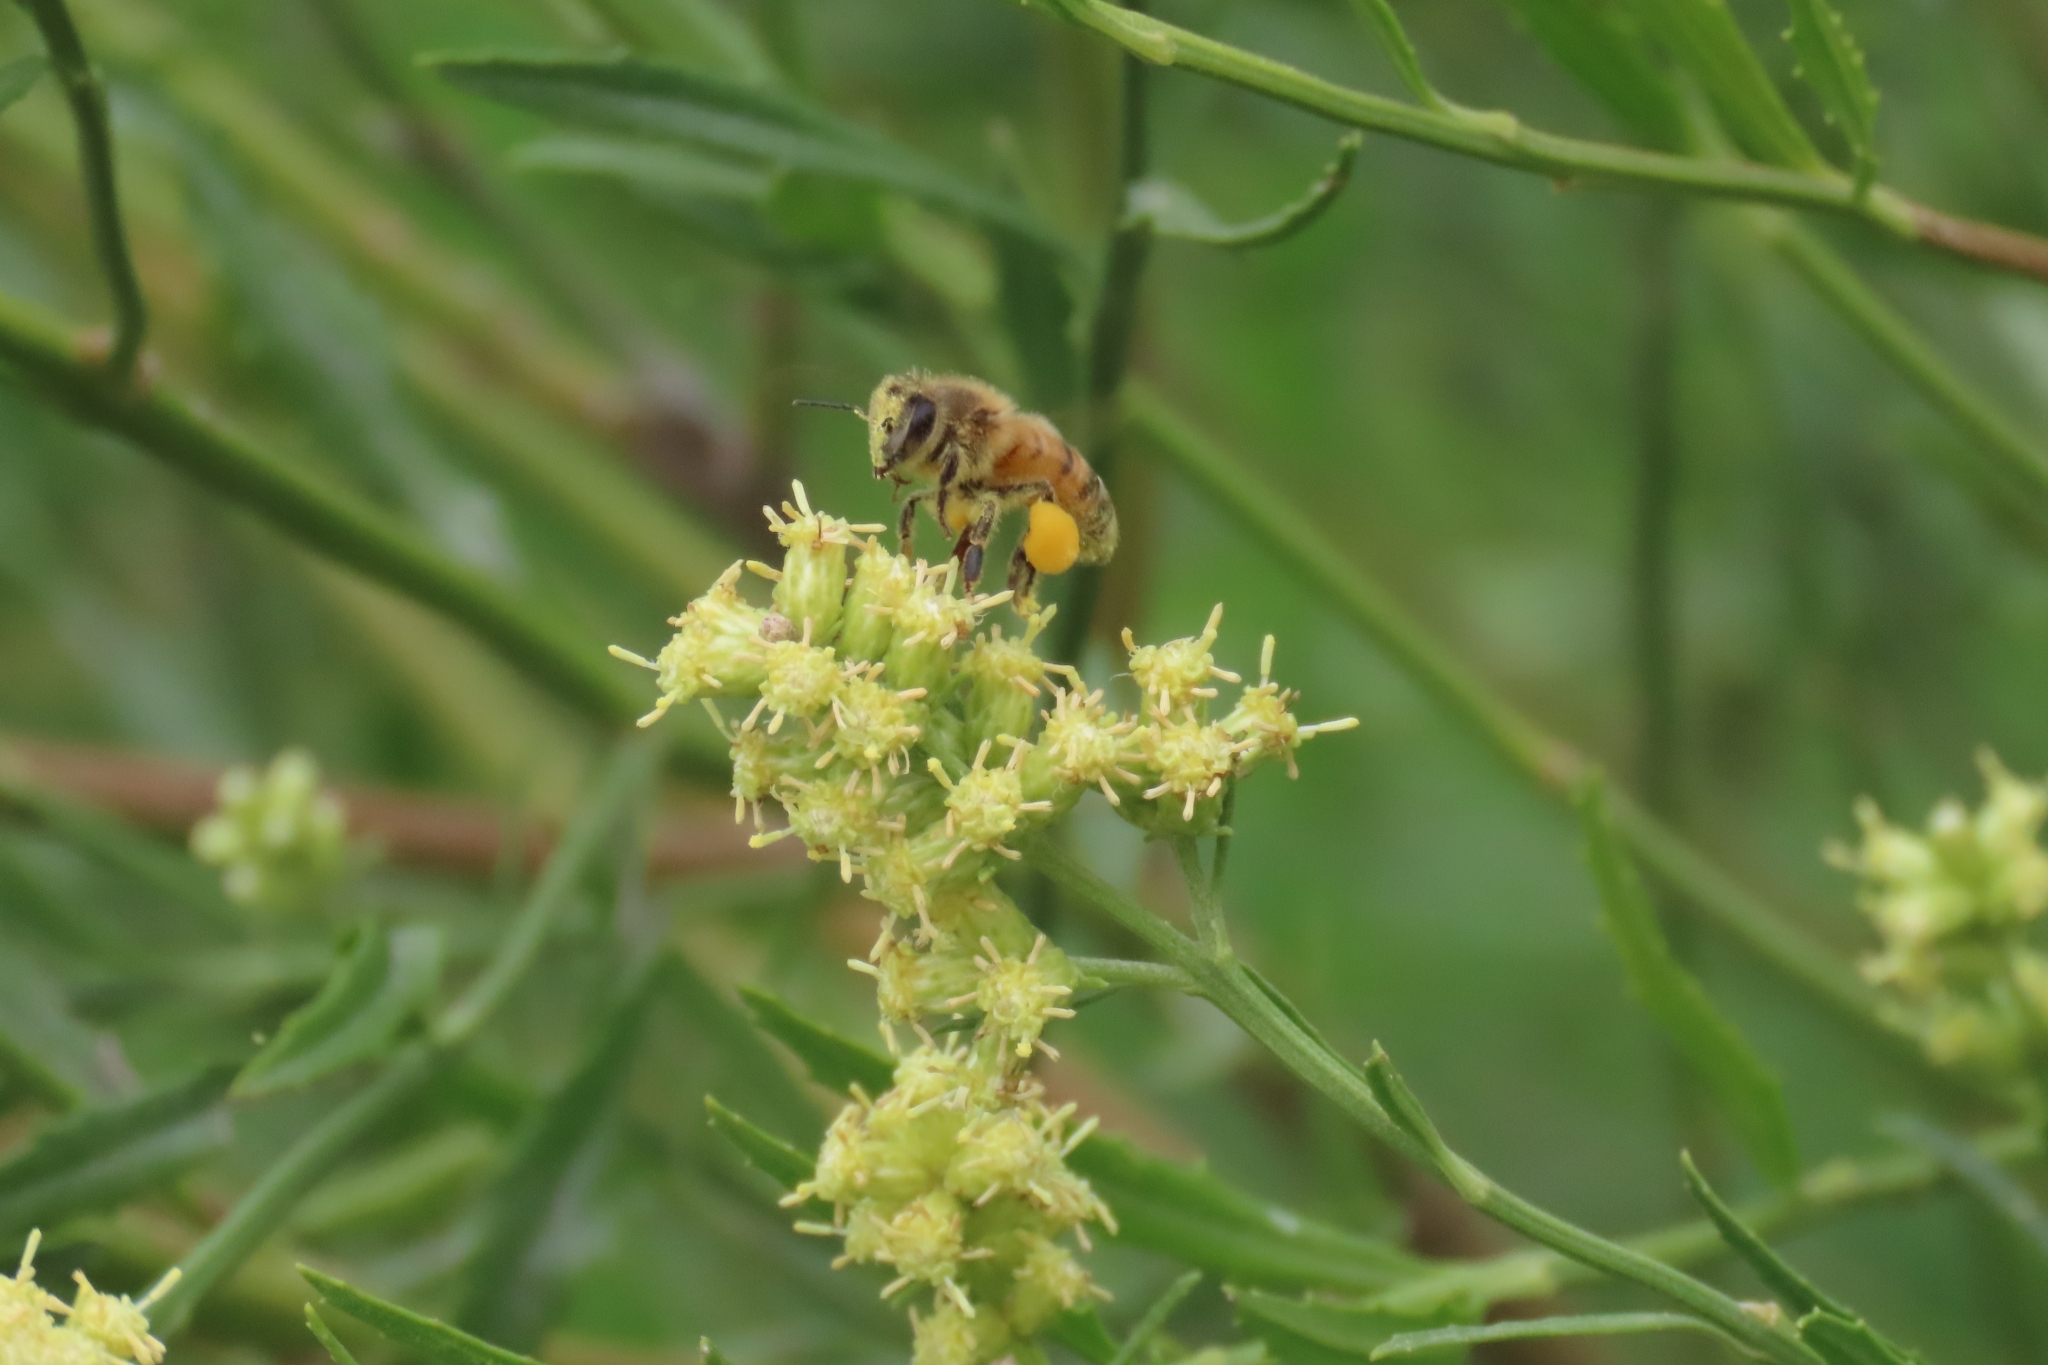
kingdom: Animalia
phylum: Arthropoda
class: Insecta
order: Hymenoptera
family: Apidae
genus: Apis
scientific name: Apis mellifera
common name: Honey bee
